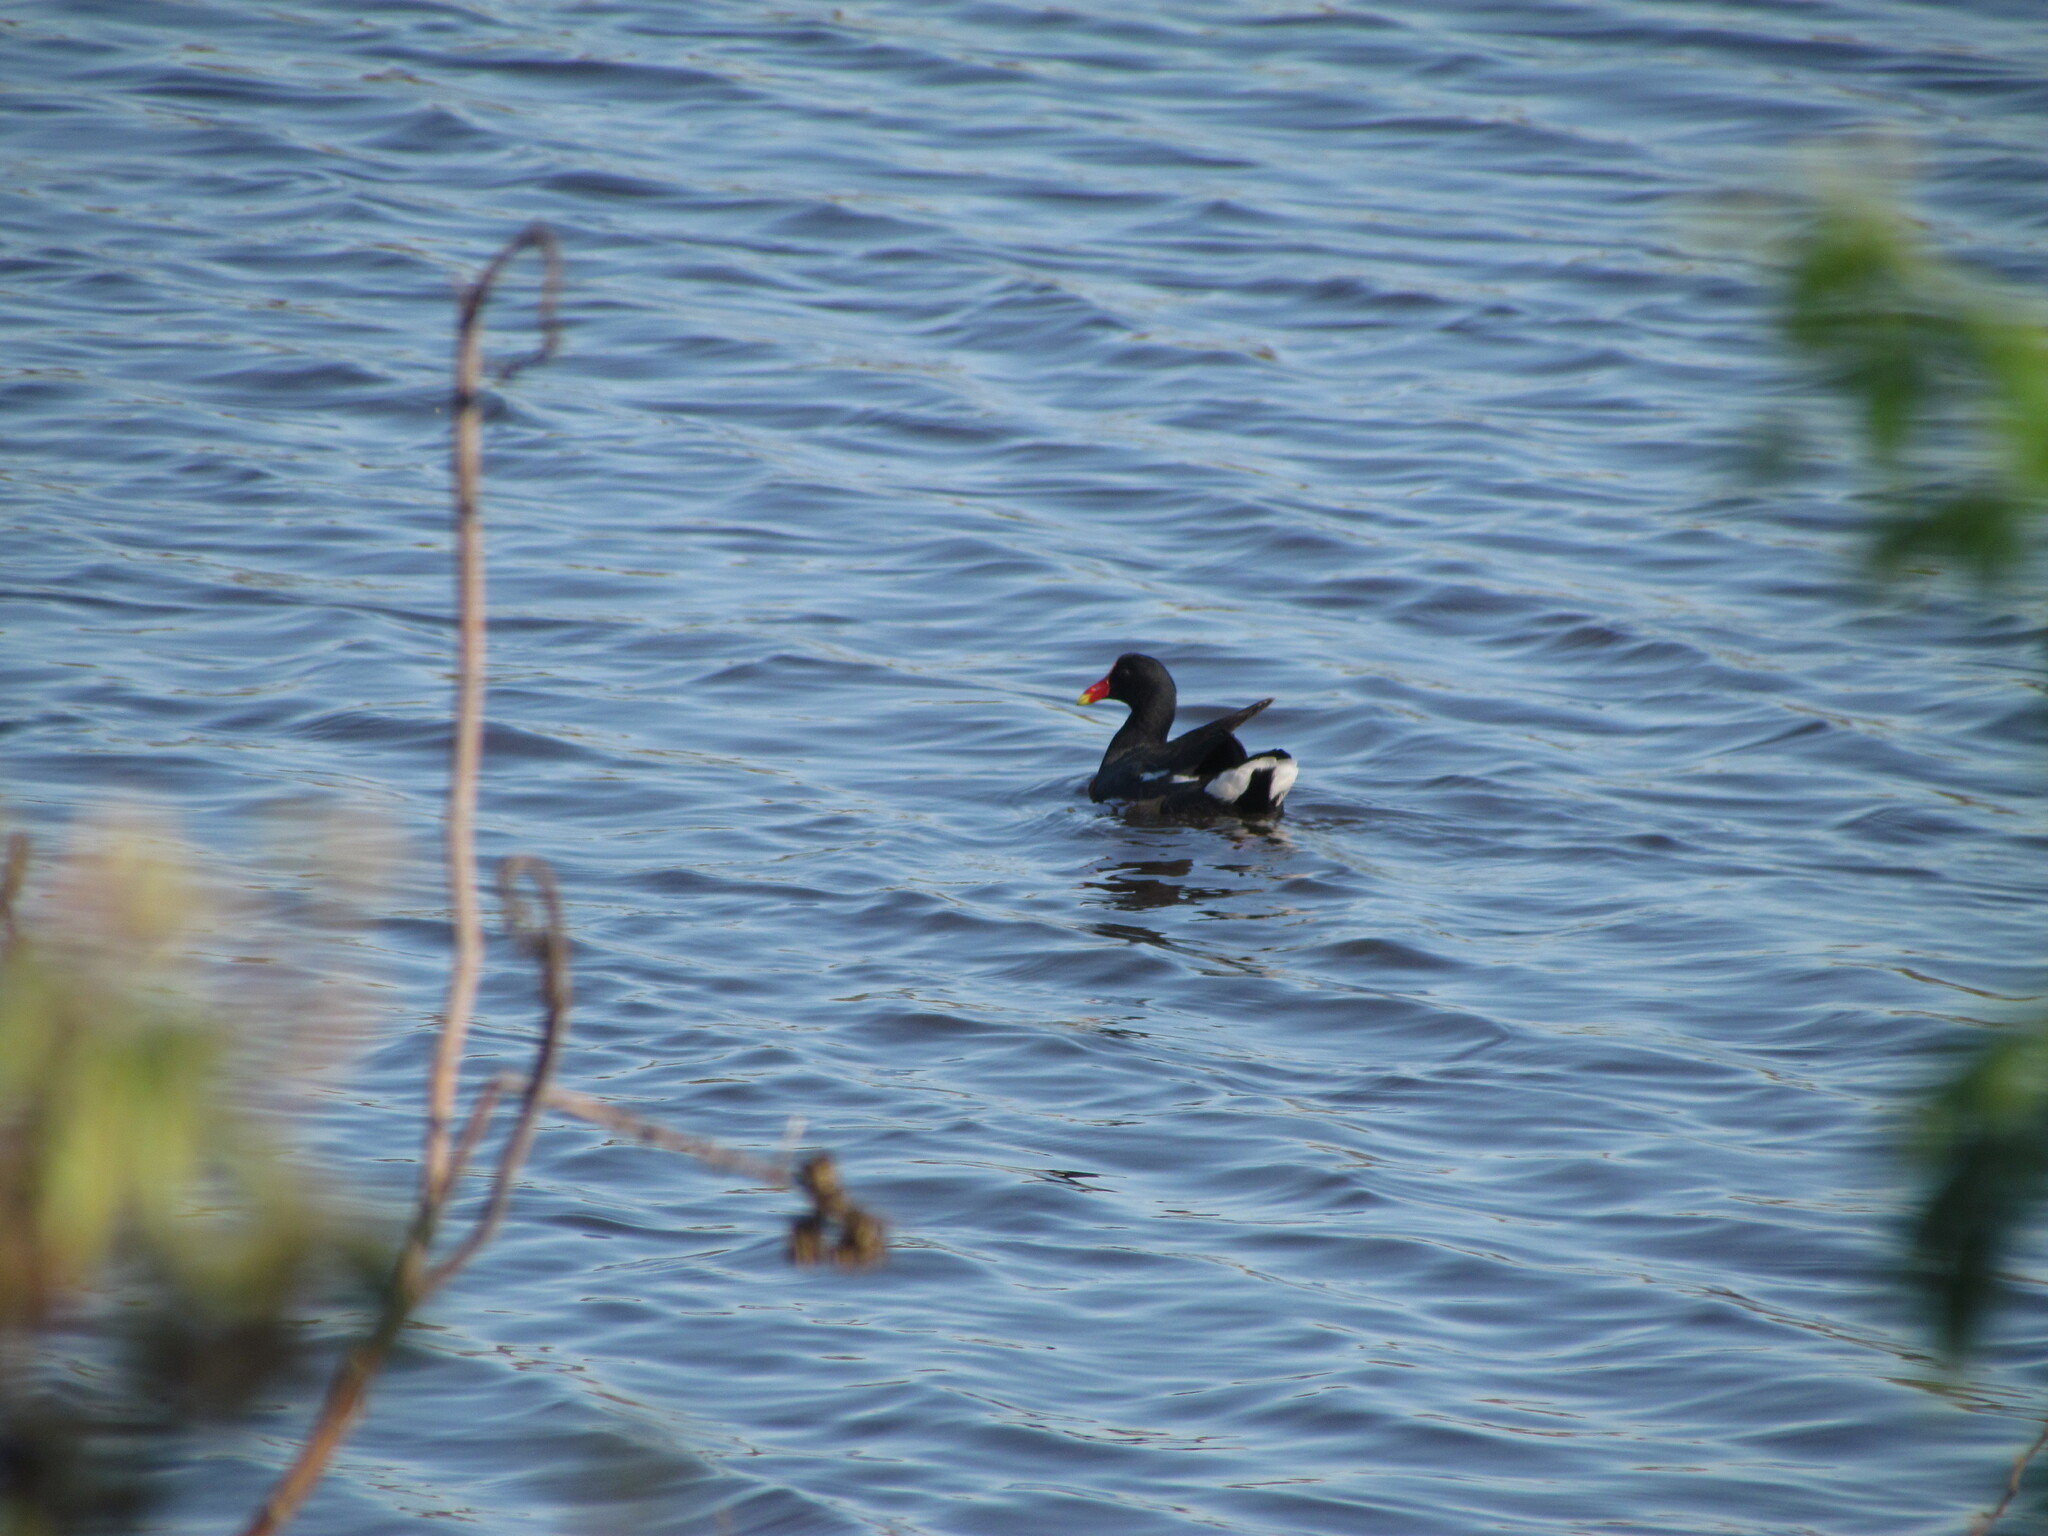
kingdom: Animalia
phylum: Chordata
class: Aves
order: Gruiformes
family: Rallidae
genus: Gallinula
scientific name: Gallinula chloropus
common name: Common moorhen
